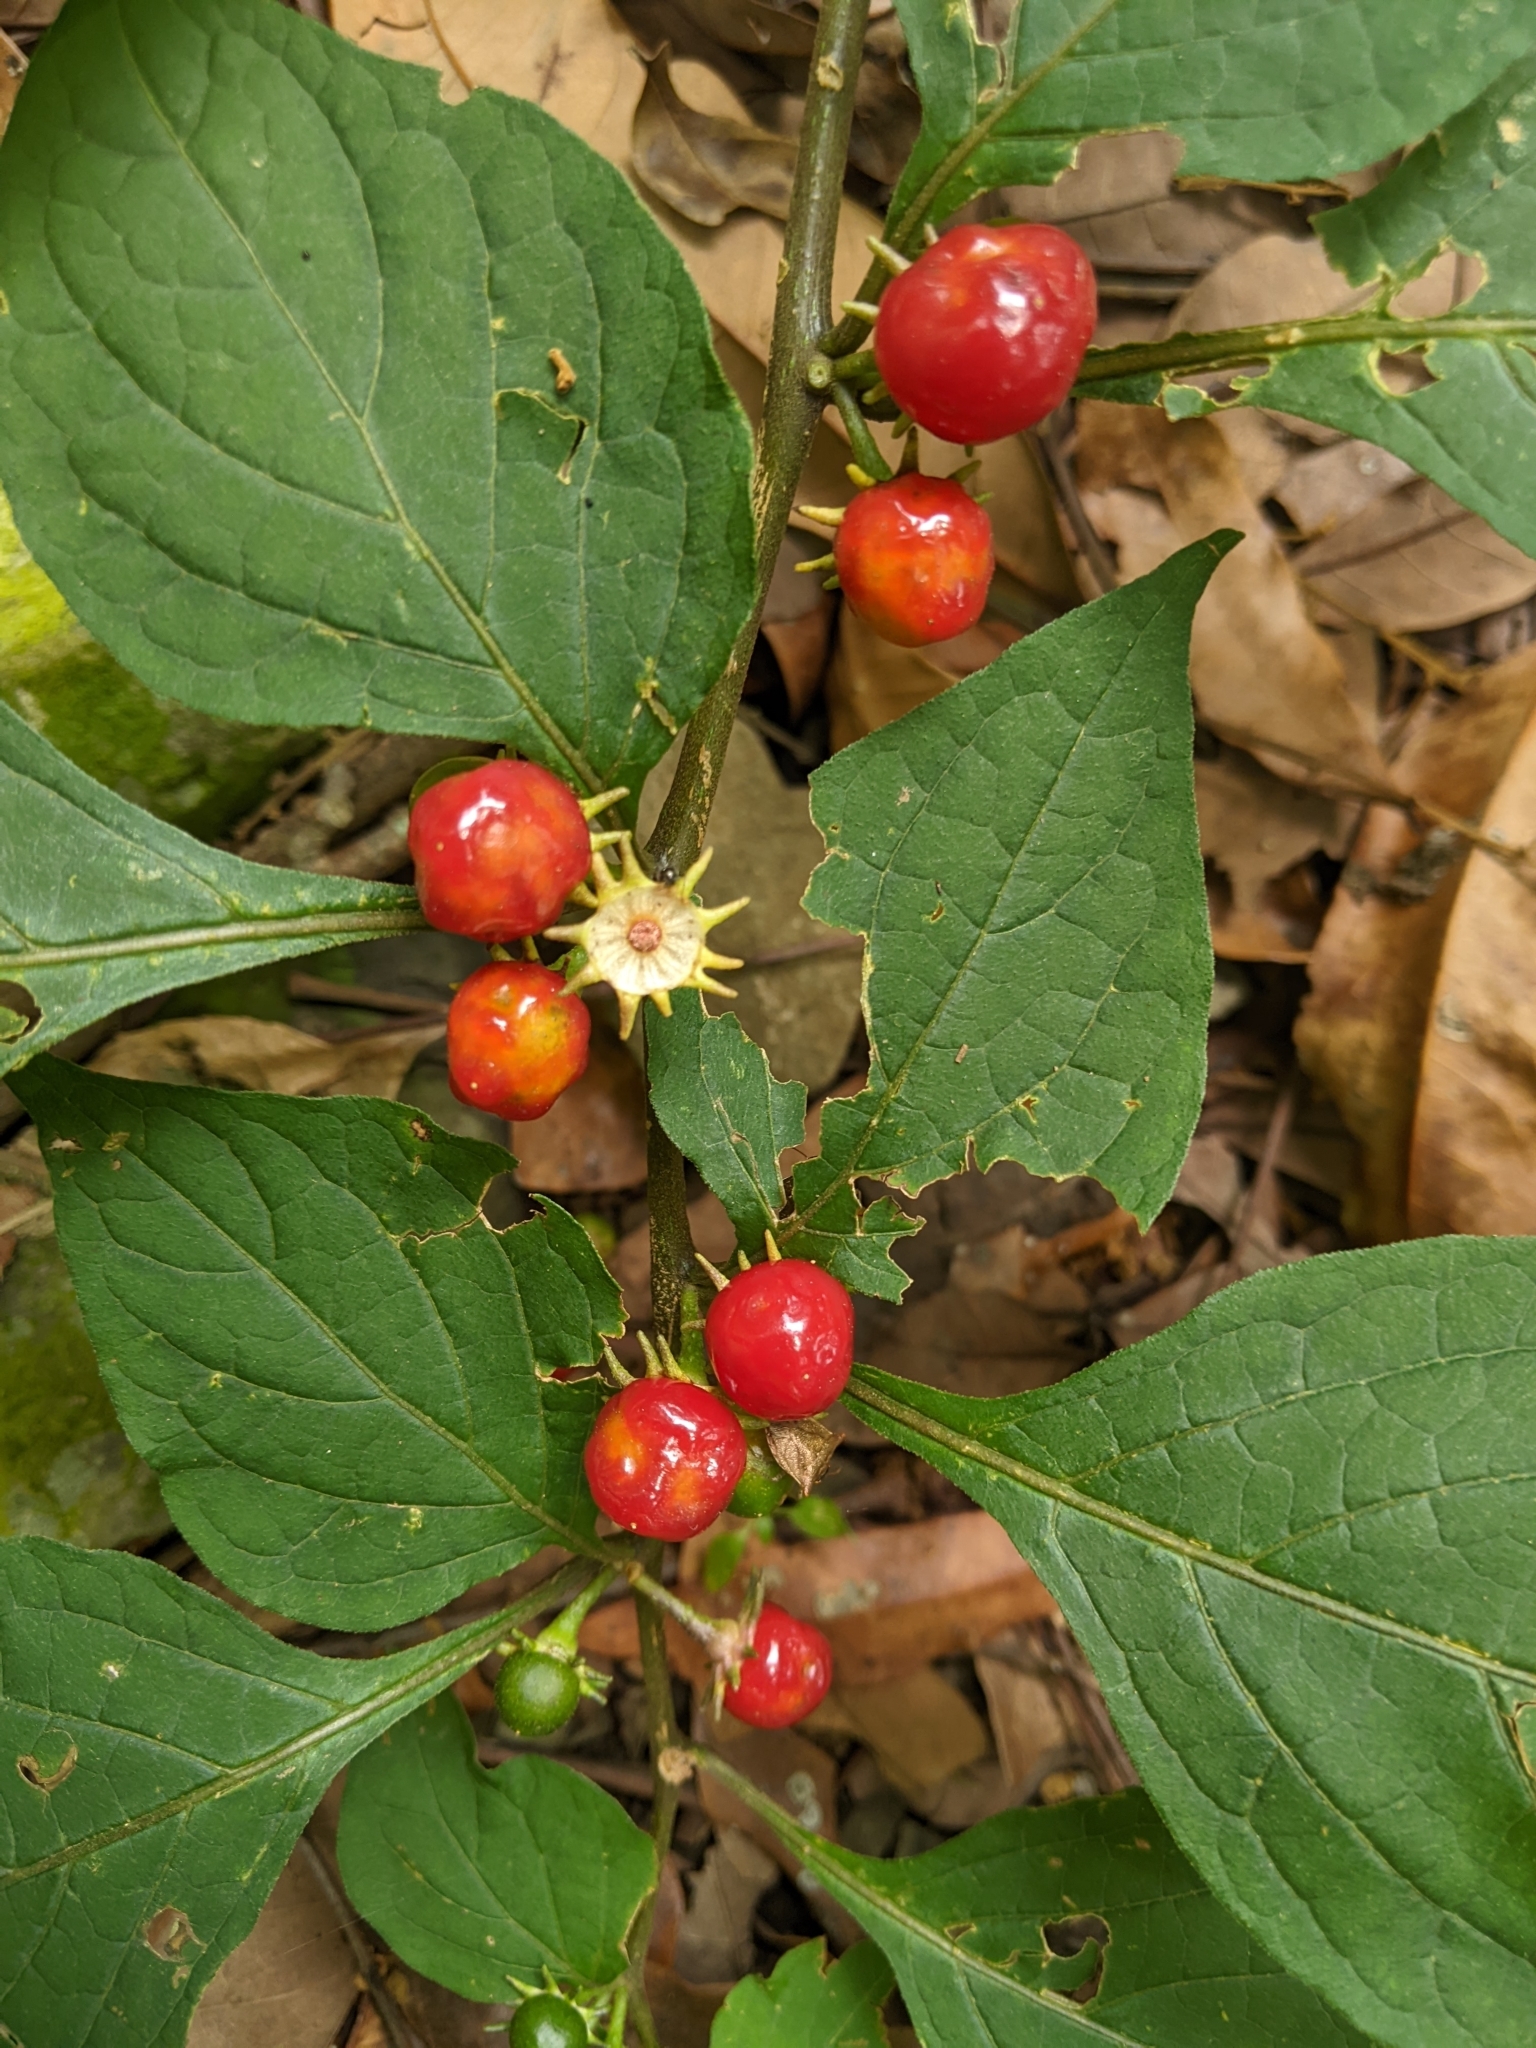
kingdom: Plantae
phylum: Tracheophyta
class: Magnoliopsida
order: Solanales
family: Solanaceae
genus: Lycianthes
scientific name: Lycianthes biflora
